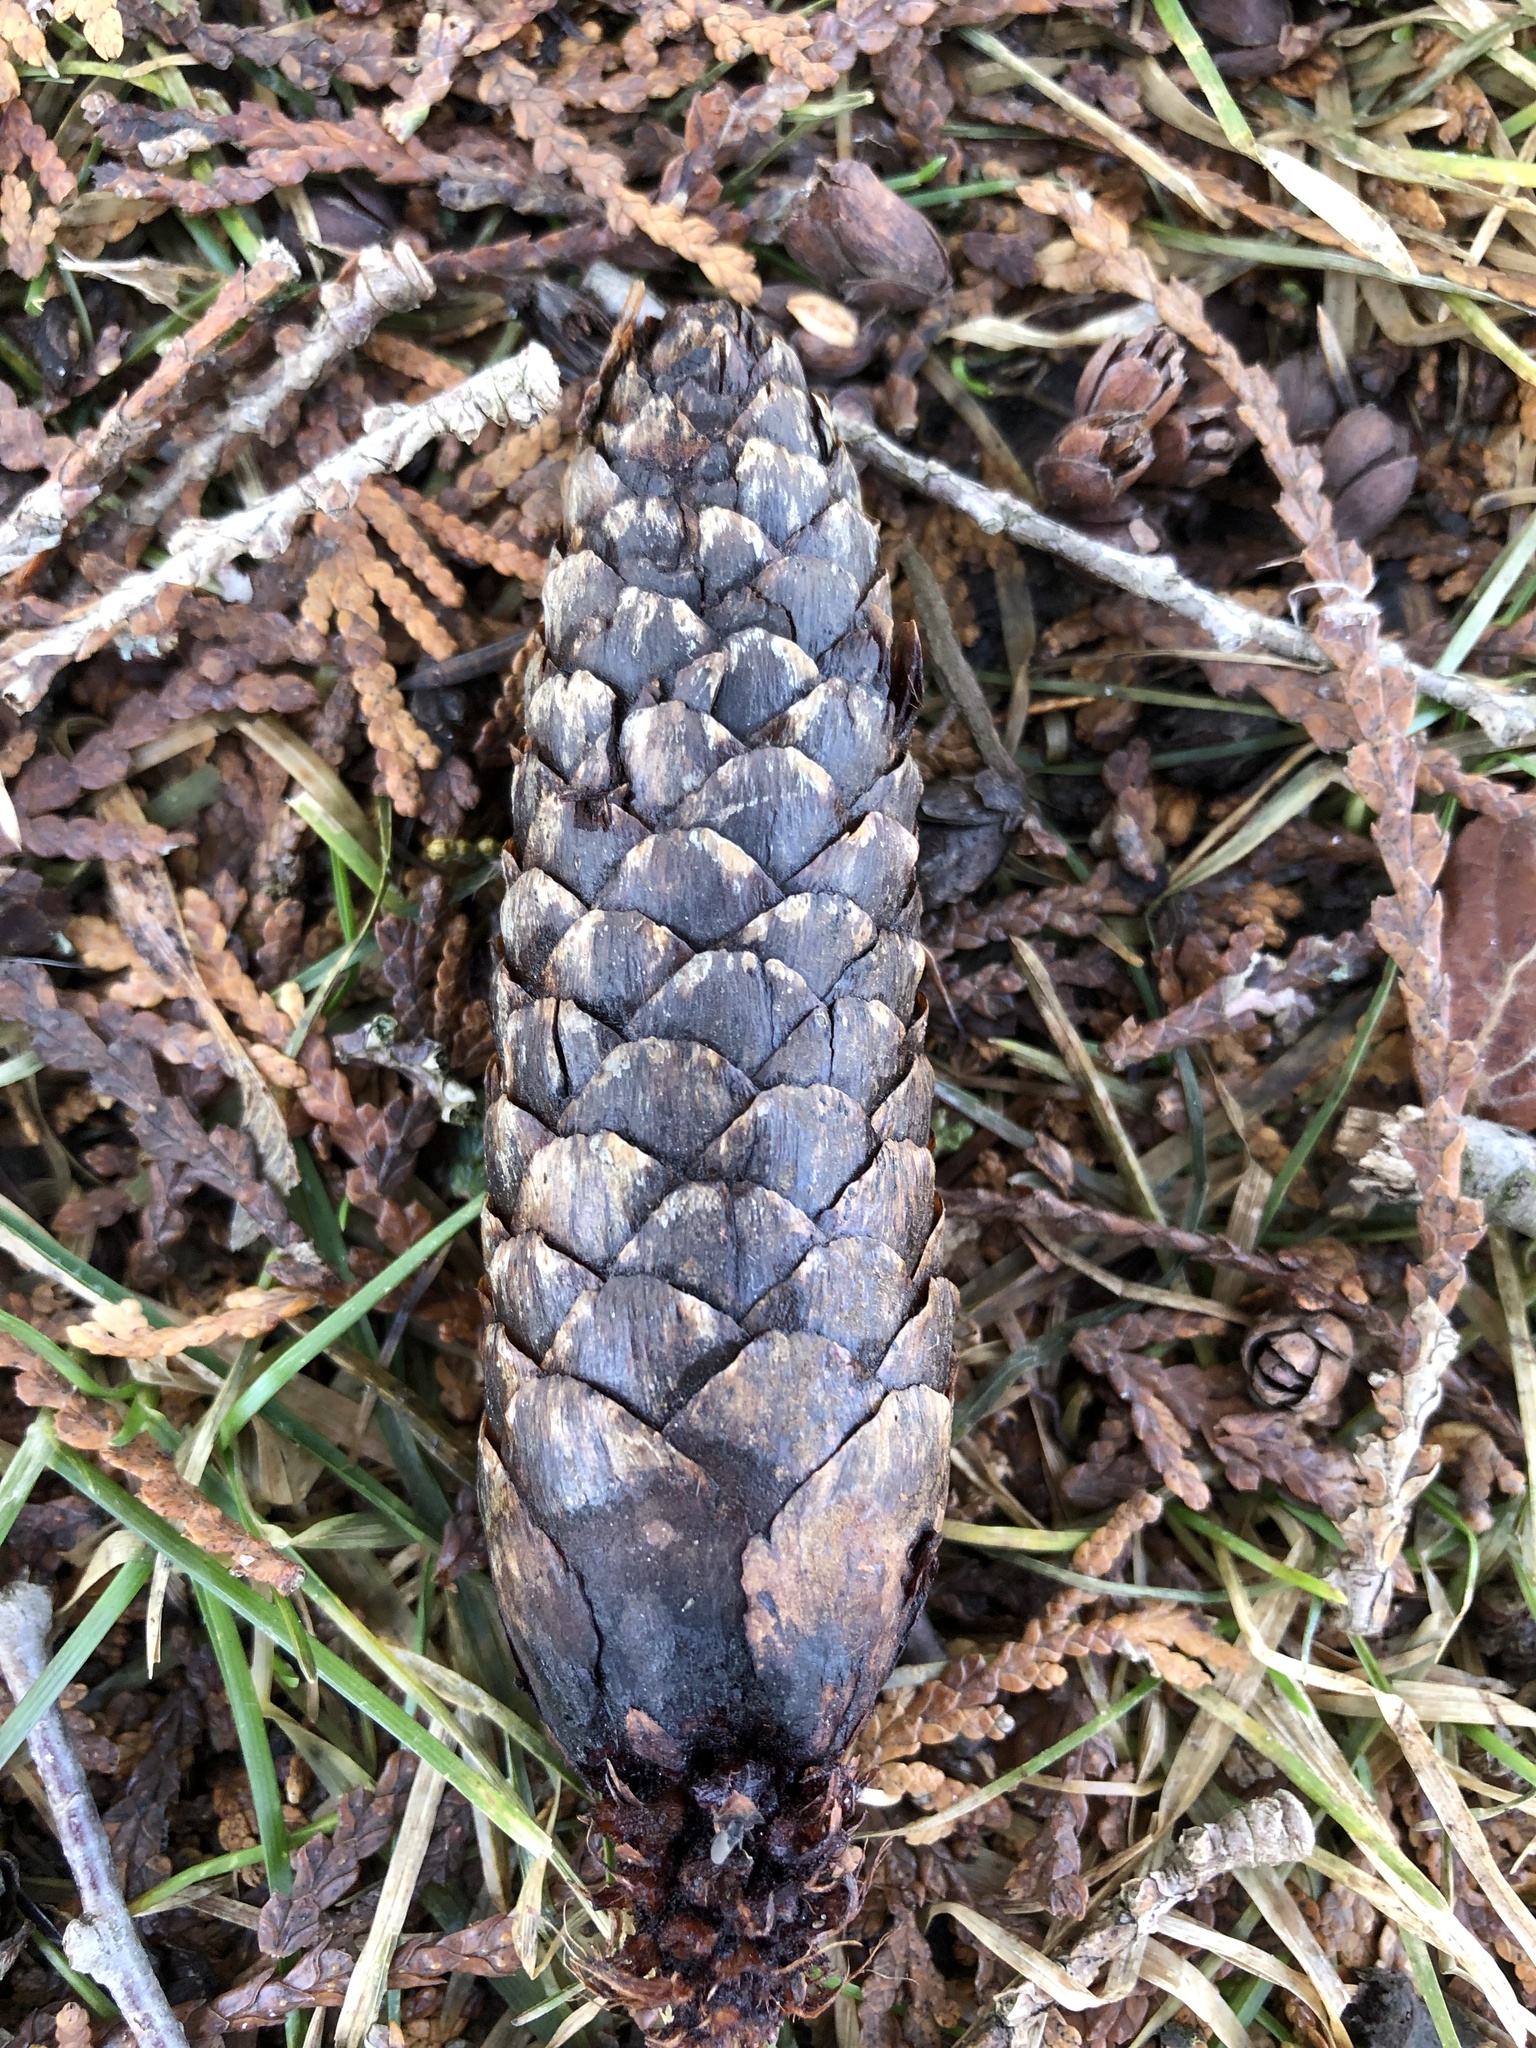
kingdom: Plantae
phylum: Tracheophyta
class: Pinopsida
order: Pinales
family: Pinaceae
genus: Picea
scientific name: Picea abies
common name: Norway spruce
